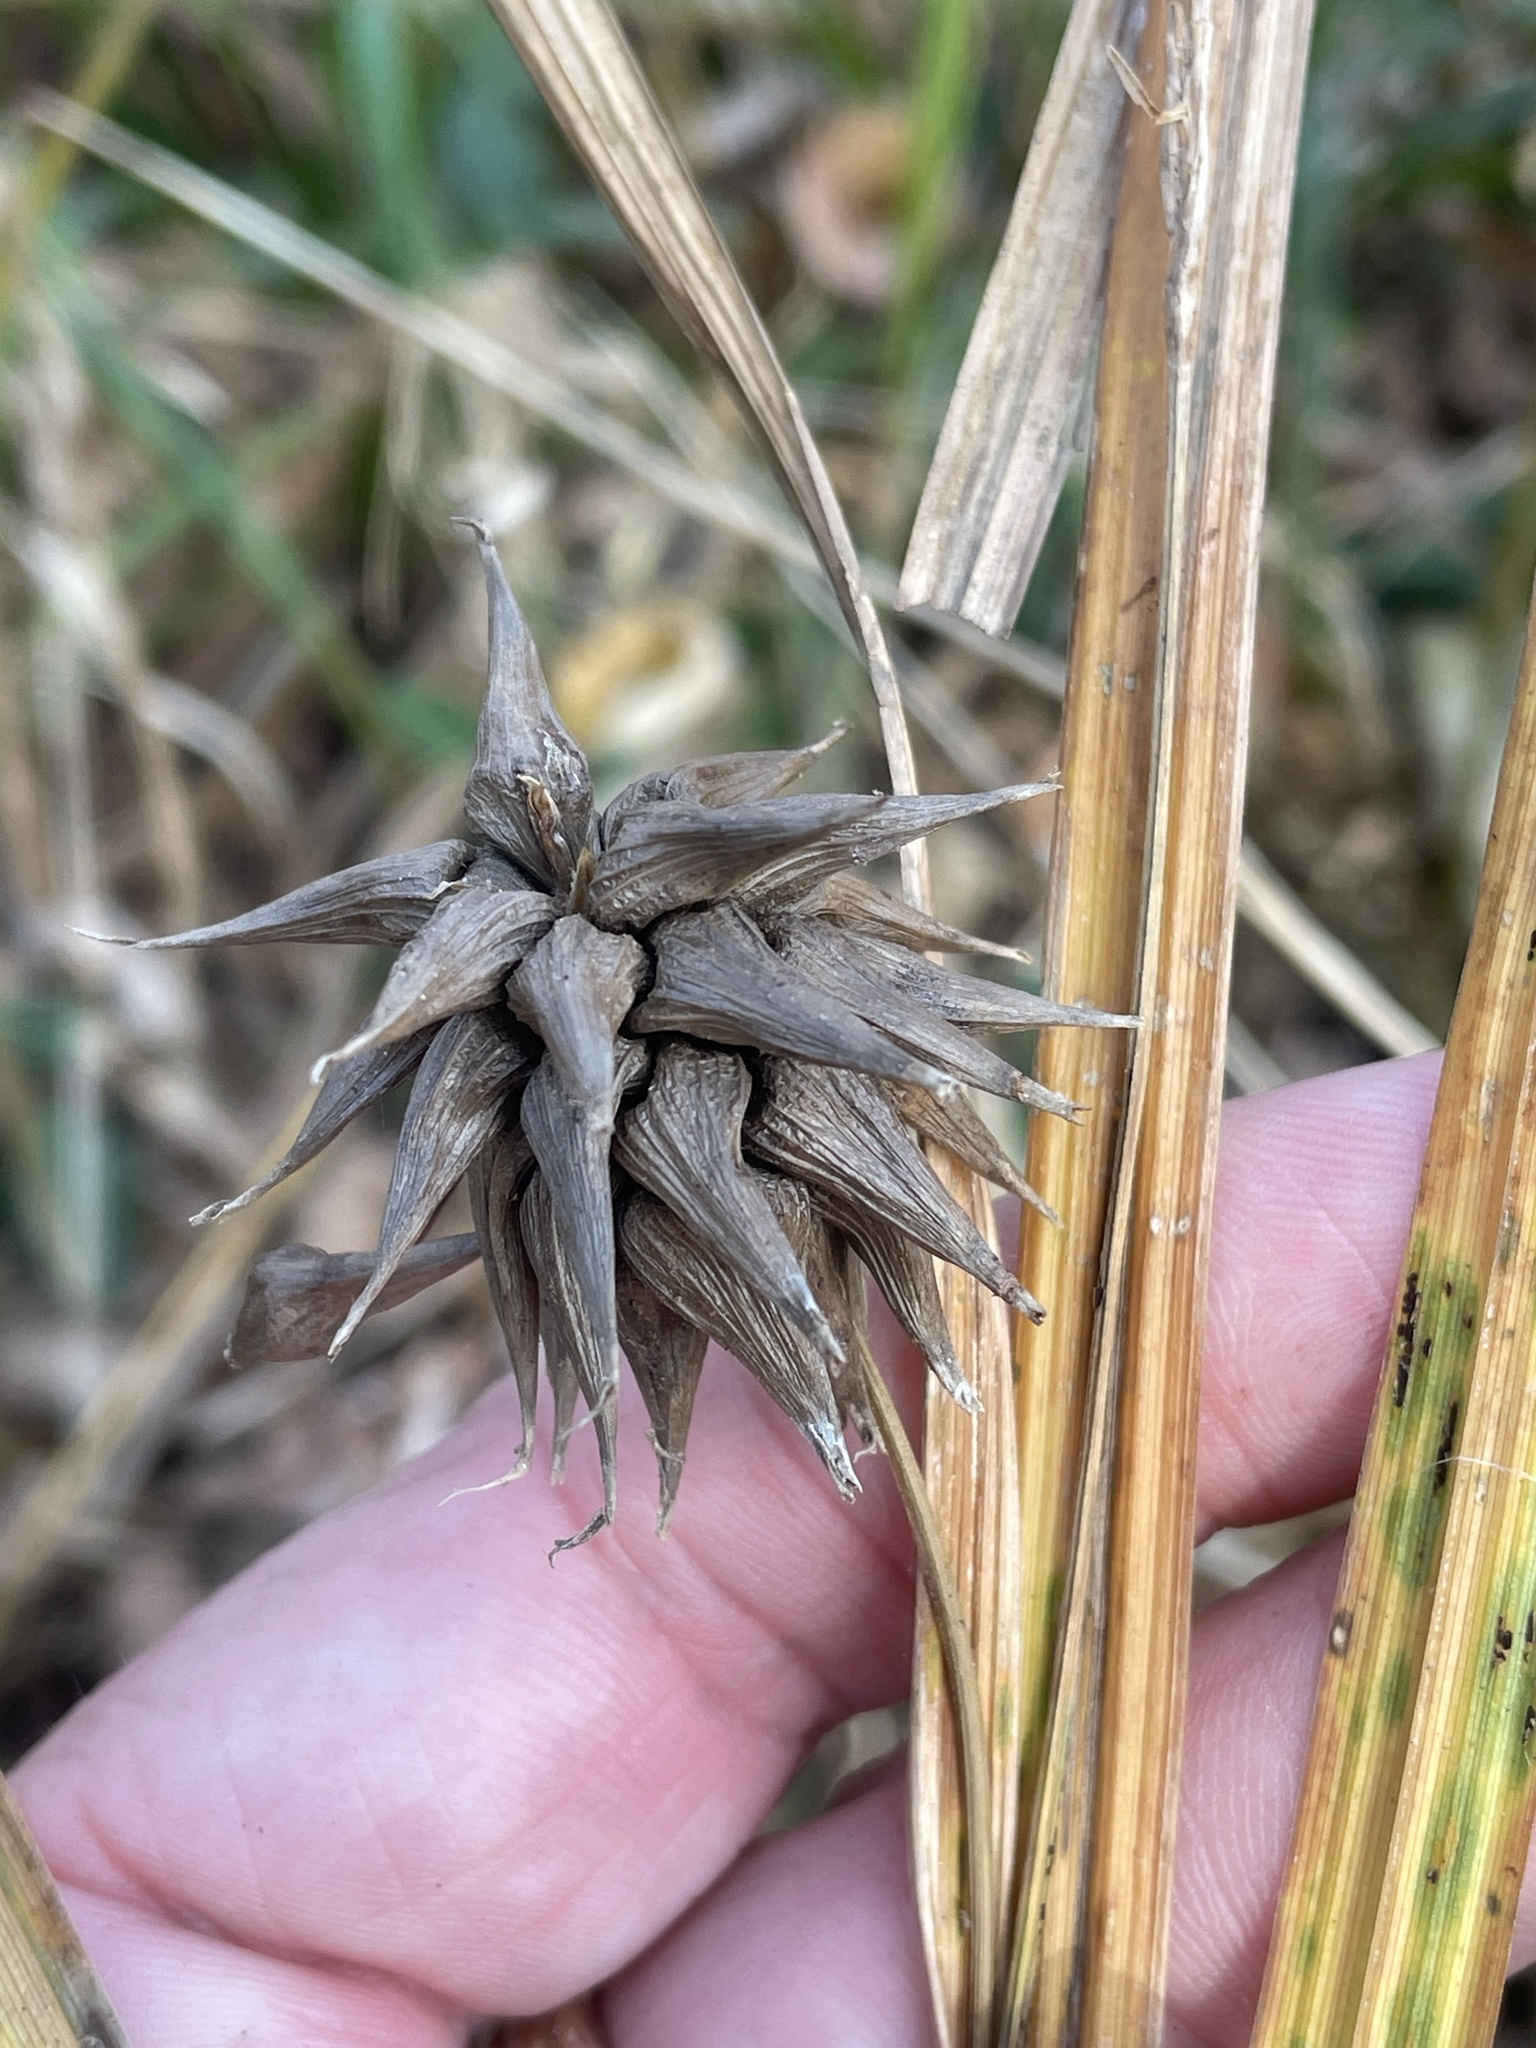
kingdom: Plantae
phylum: Tracheophyta
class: Liliopsida
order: Poales
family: Cyperaceae
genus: Carex
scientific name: Carex grayi
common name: Asa gray's sedge
